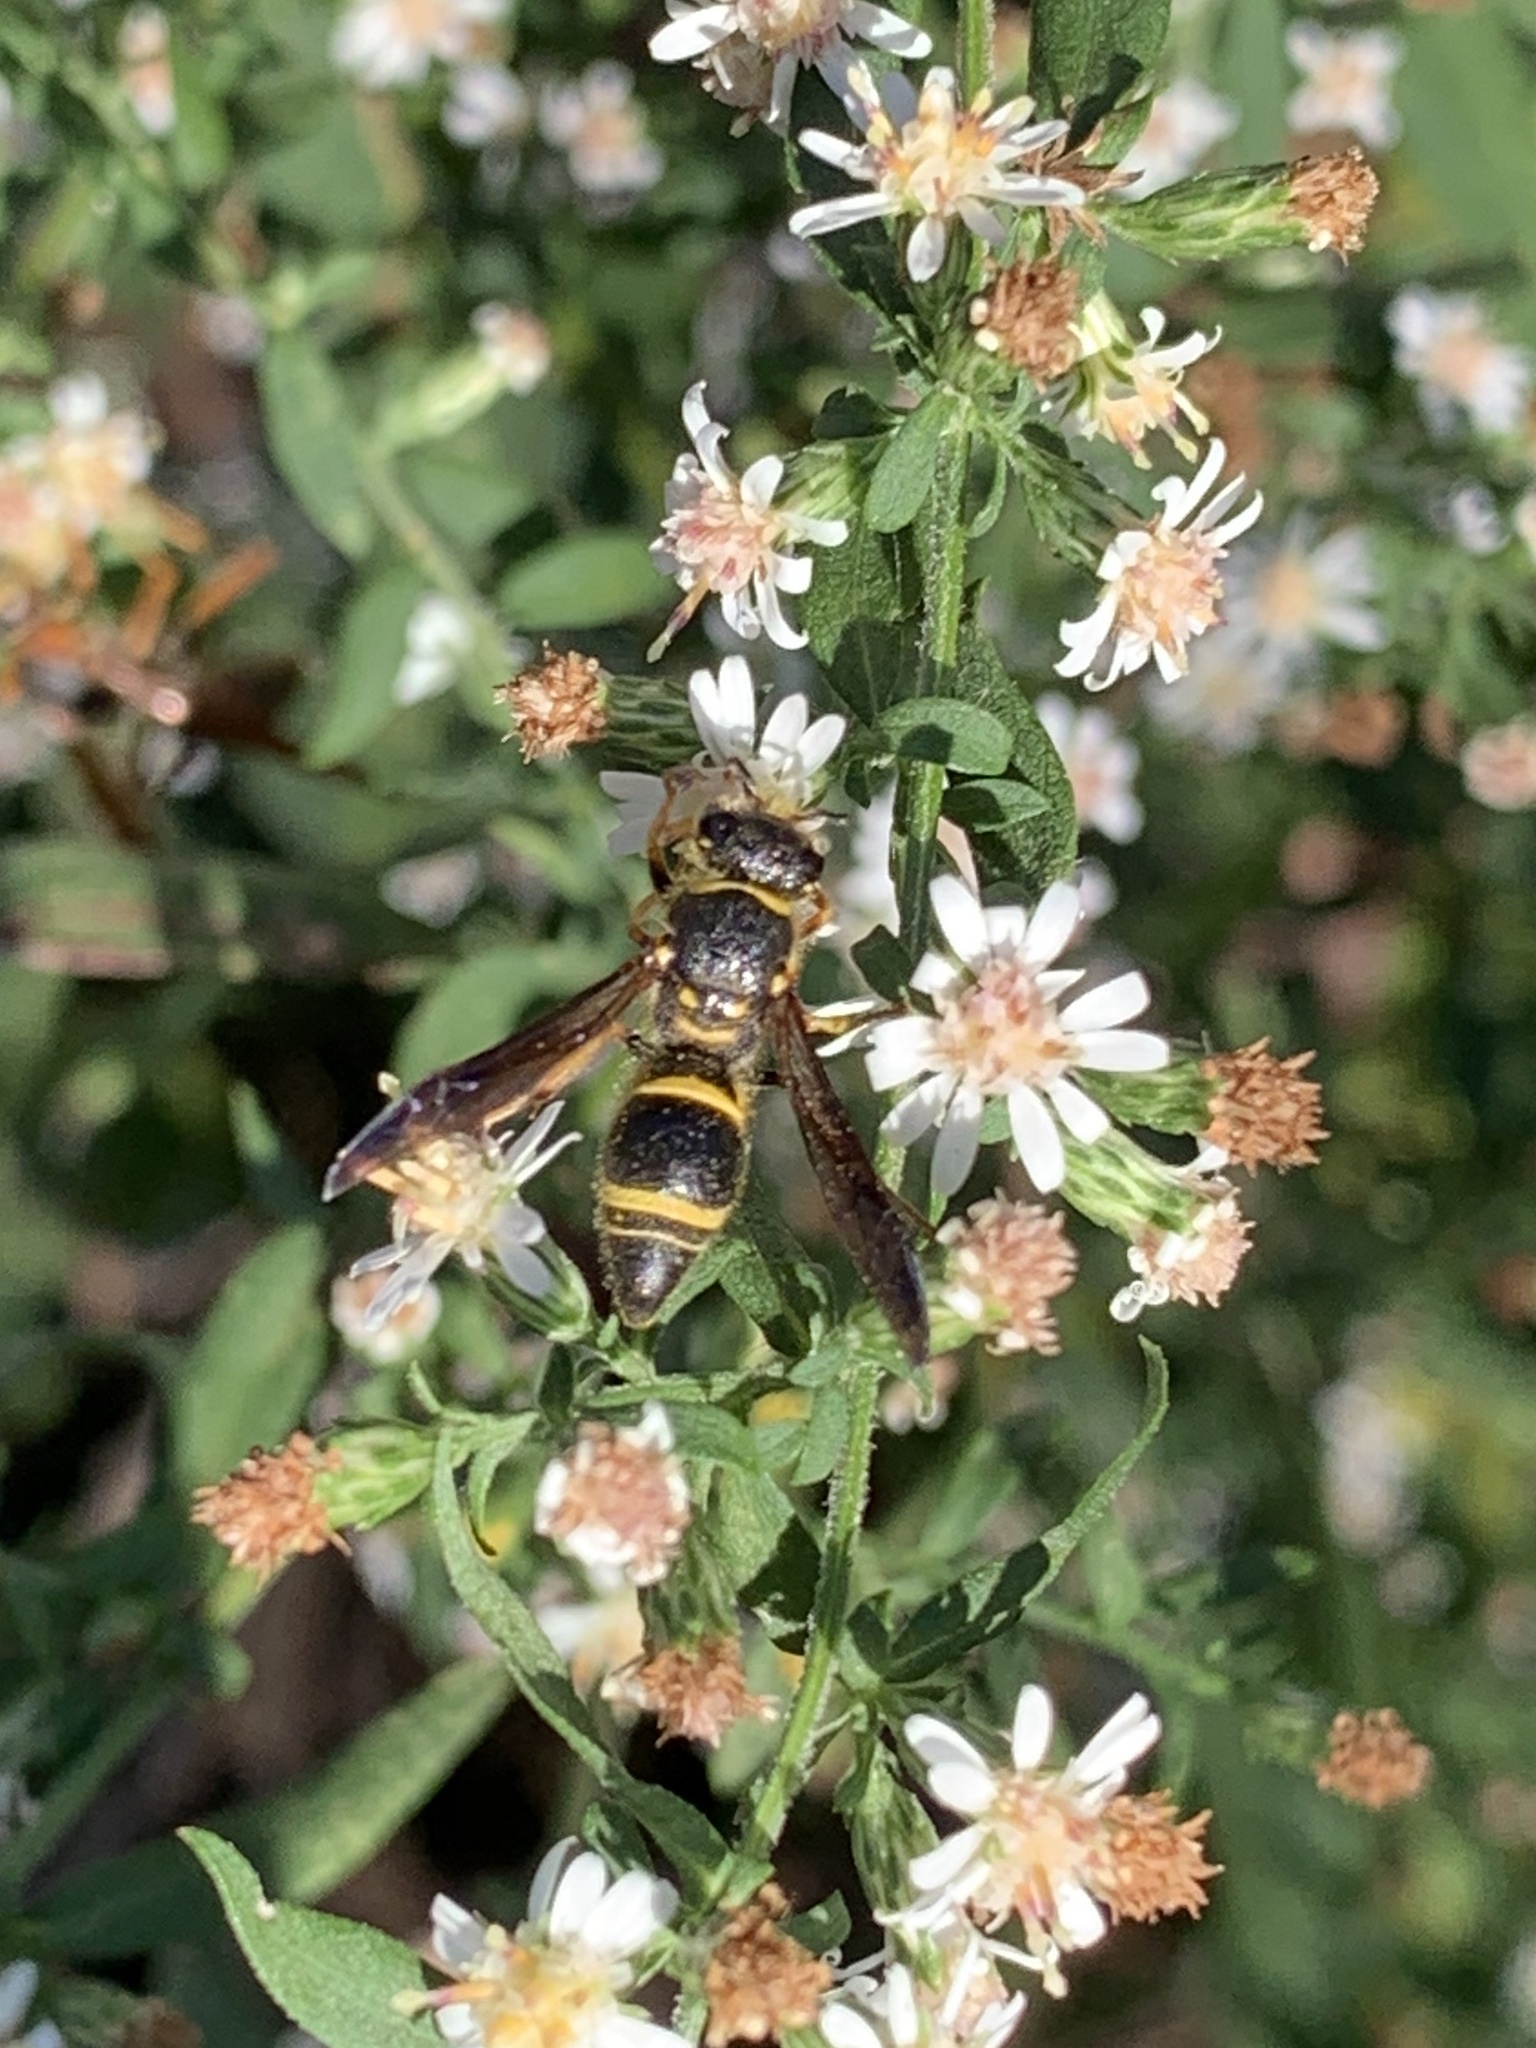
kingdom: Animalia
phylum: Arthropoda
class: Insecta
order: Hymenoptera
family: Vespidae
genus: Ancistrocerus
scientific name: Ancistrocerus campestris
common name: Smiling mason wasp
